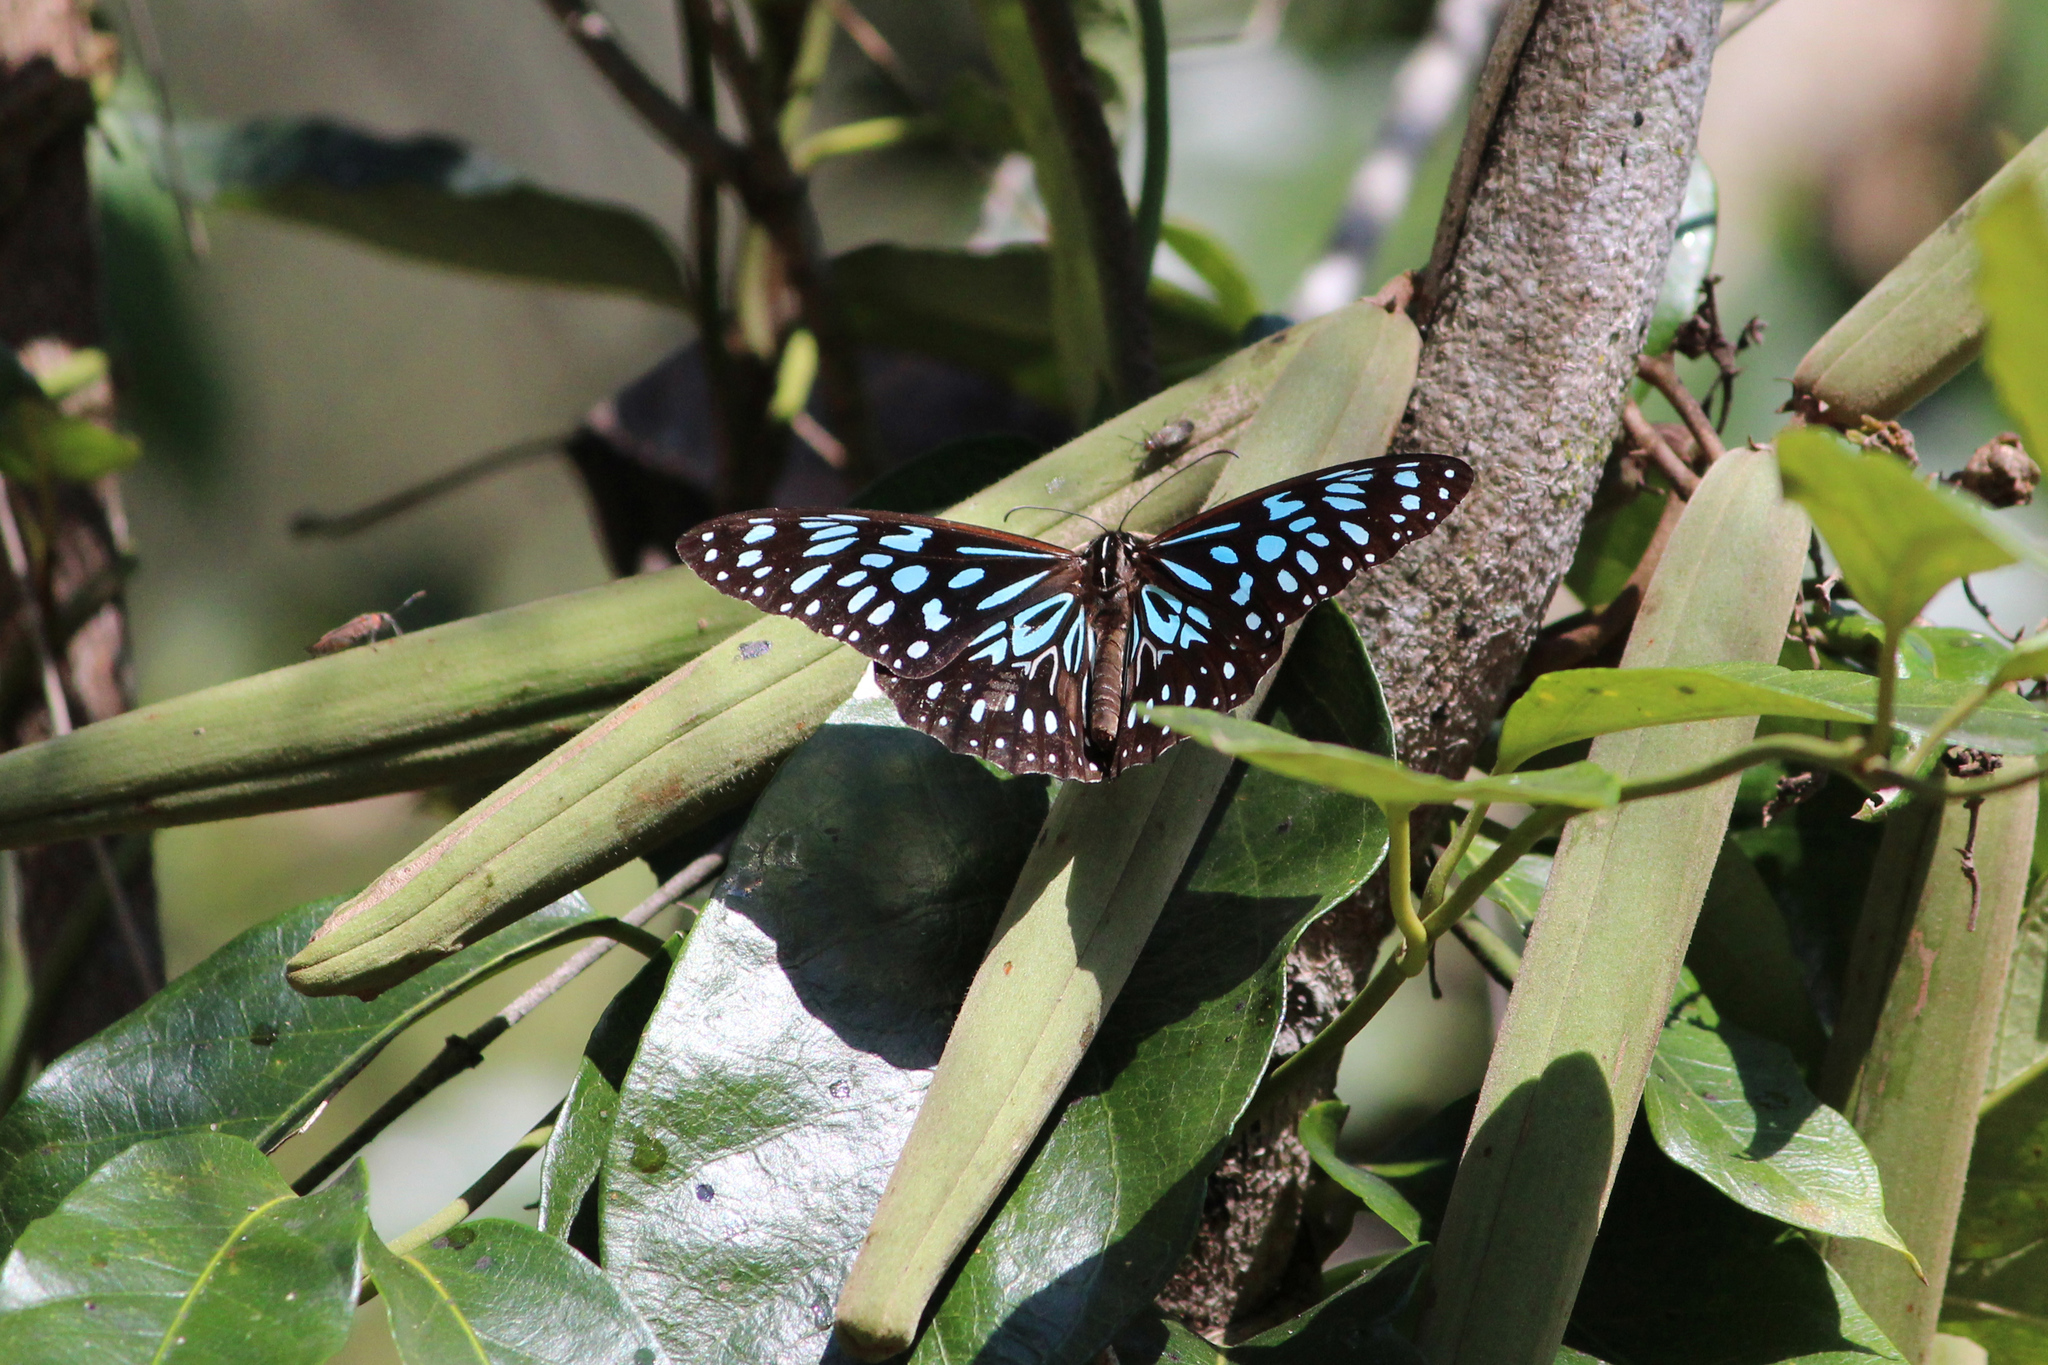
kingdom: Animalia
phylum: Arthropoda
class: Insecta
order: Lepidoptera
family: Nymphalidae
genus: Tirumala
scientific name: Tirumala hamata
